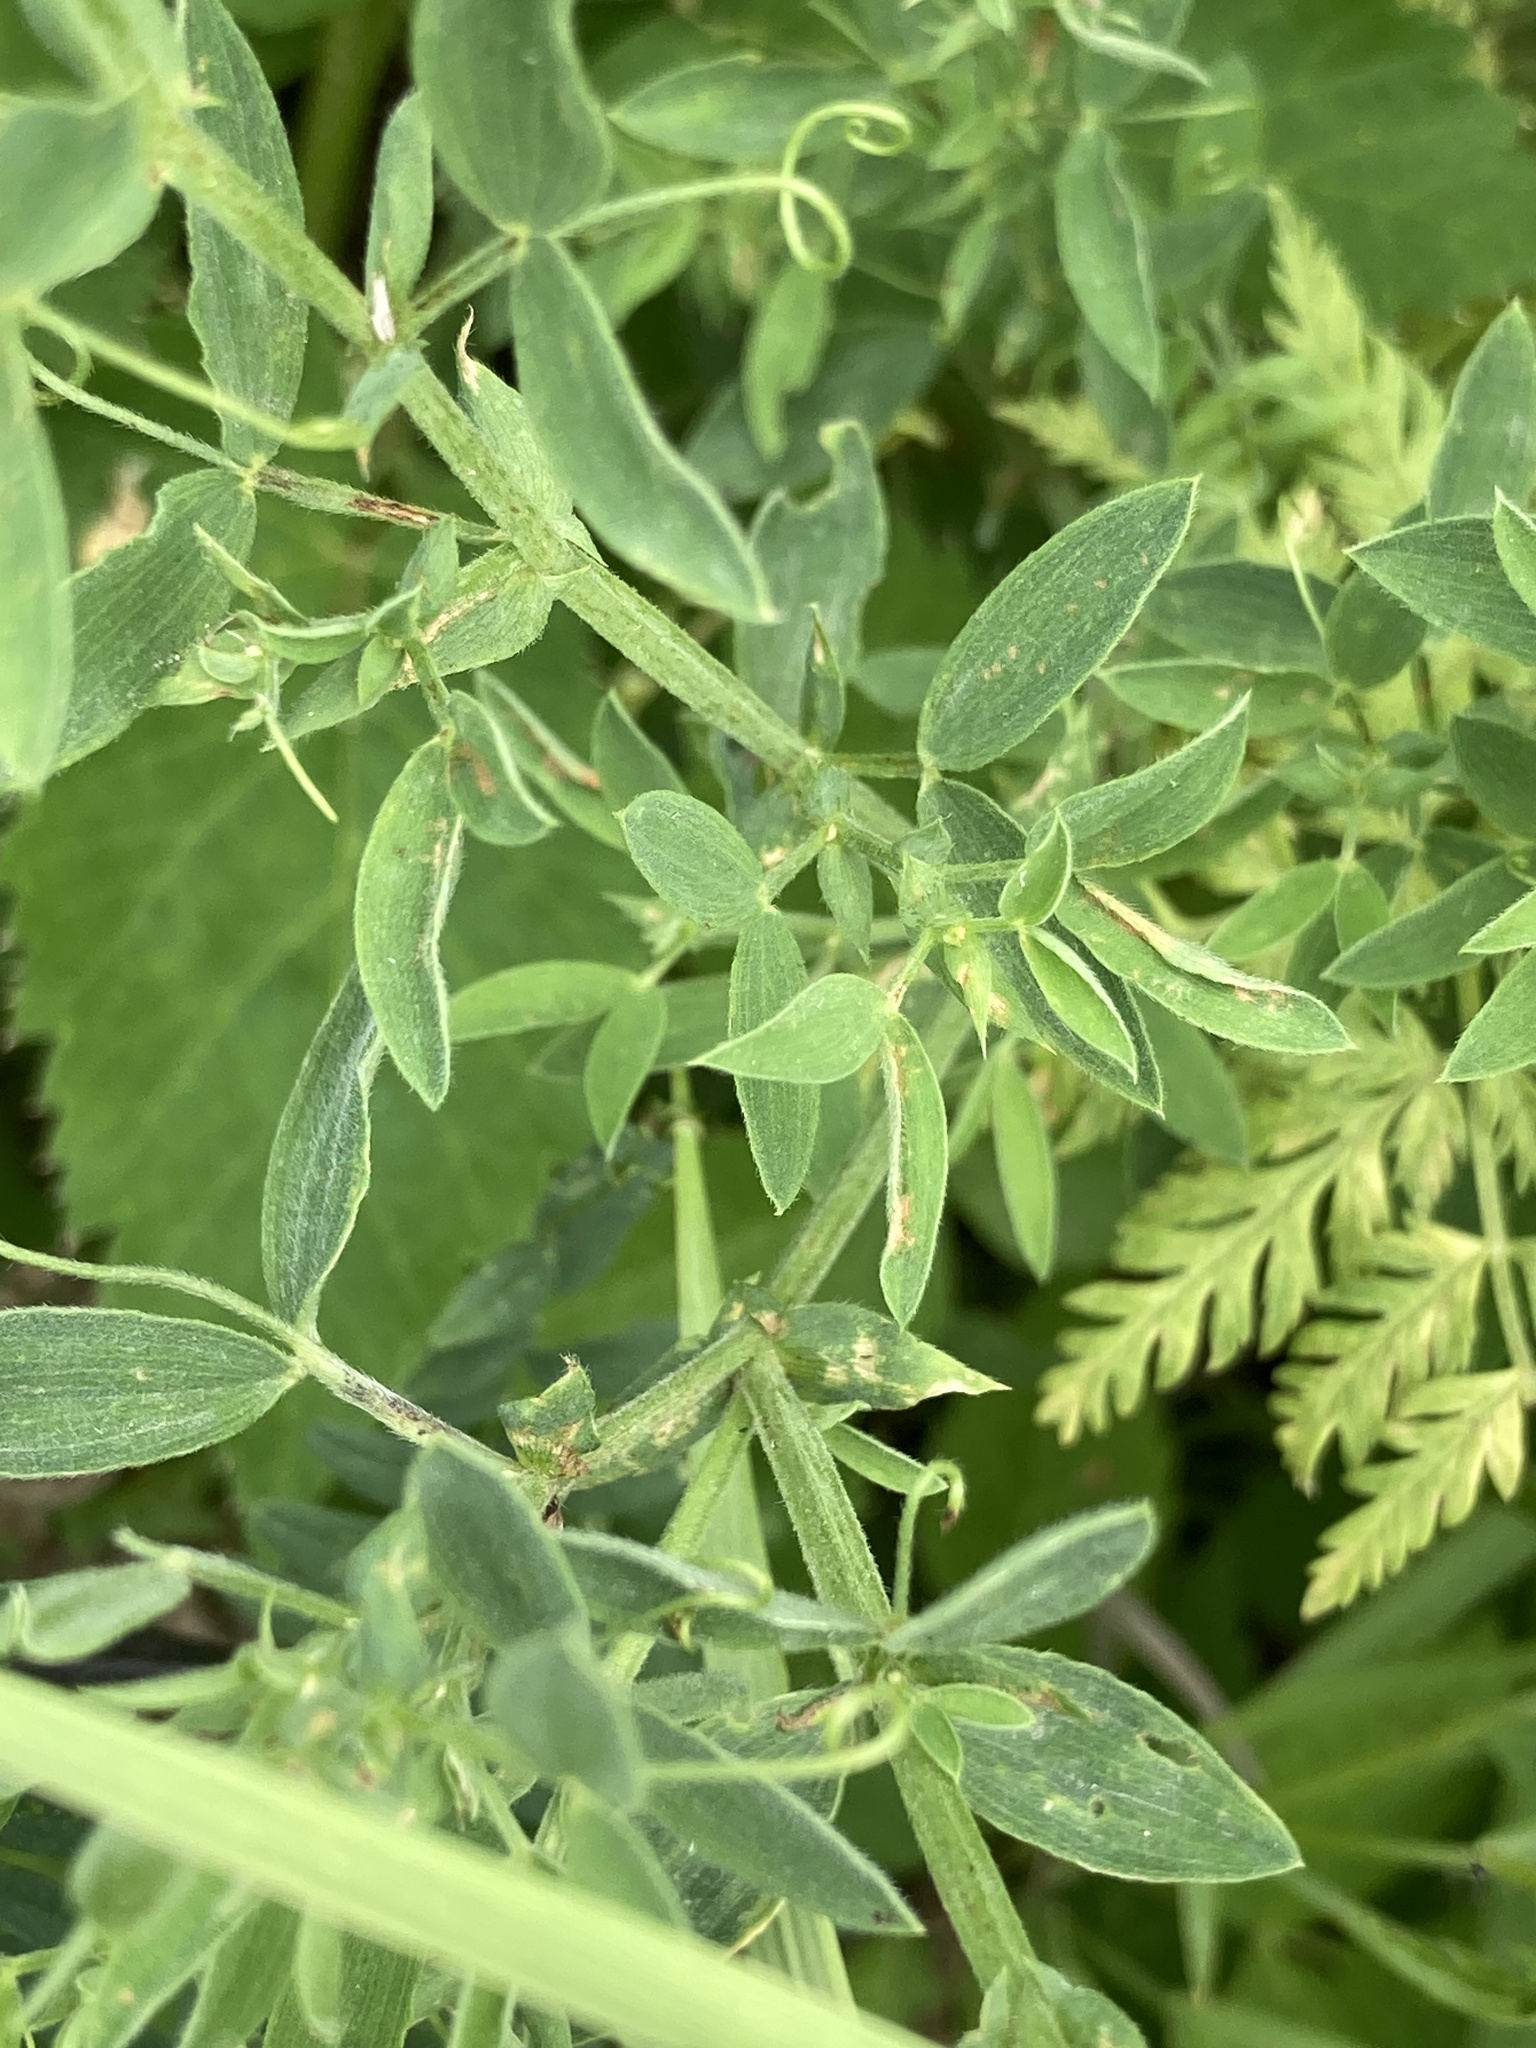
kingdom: Plantae
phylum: Tracheophyta
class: Magnoliopsida
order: Fabales
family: Fabaceae
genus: Lathyrus
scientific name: Lathyrus pratensis
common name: Meadow vetchling
